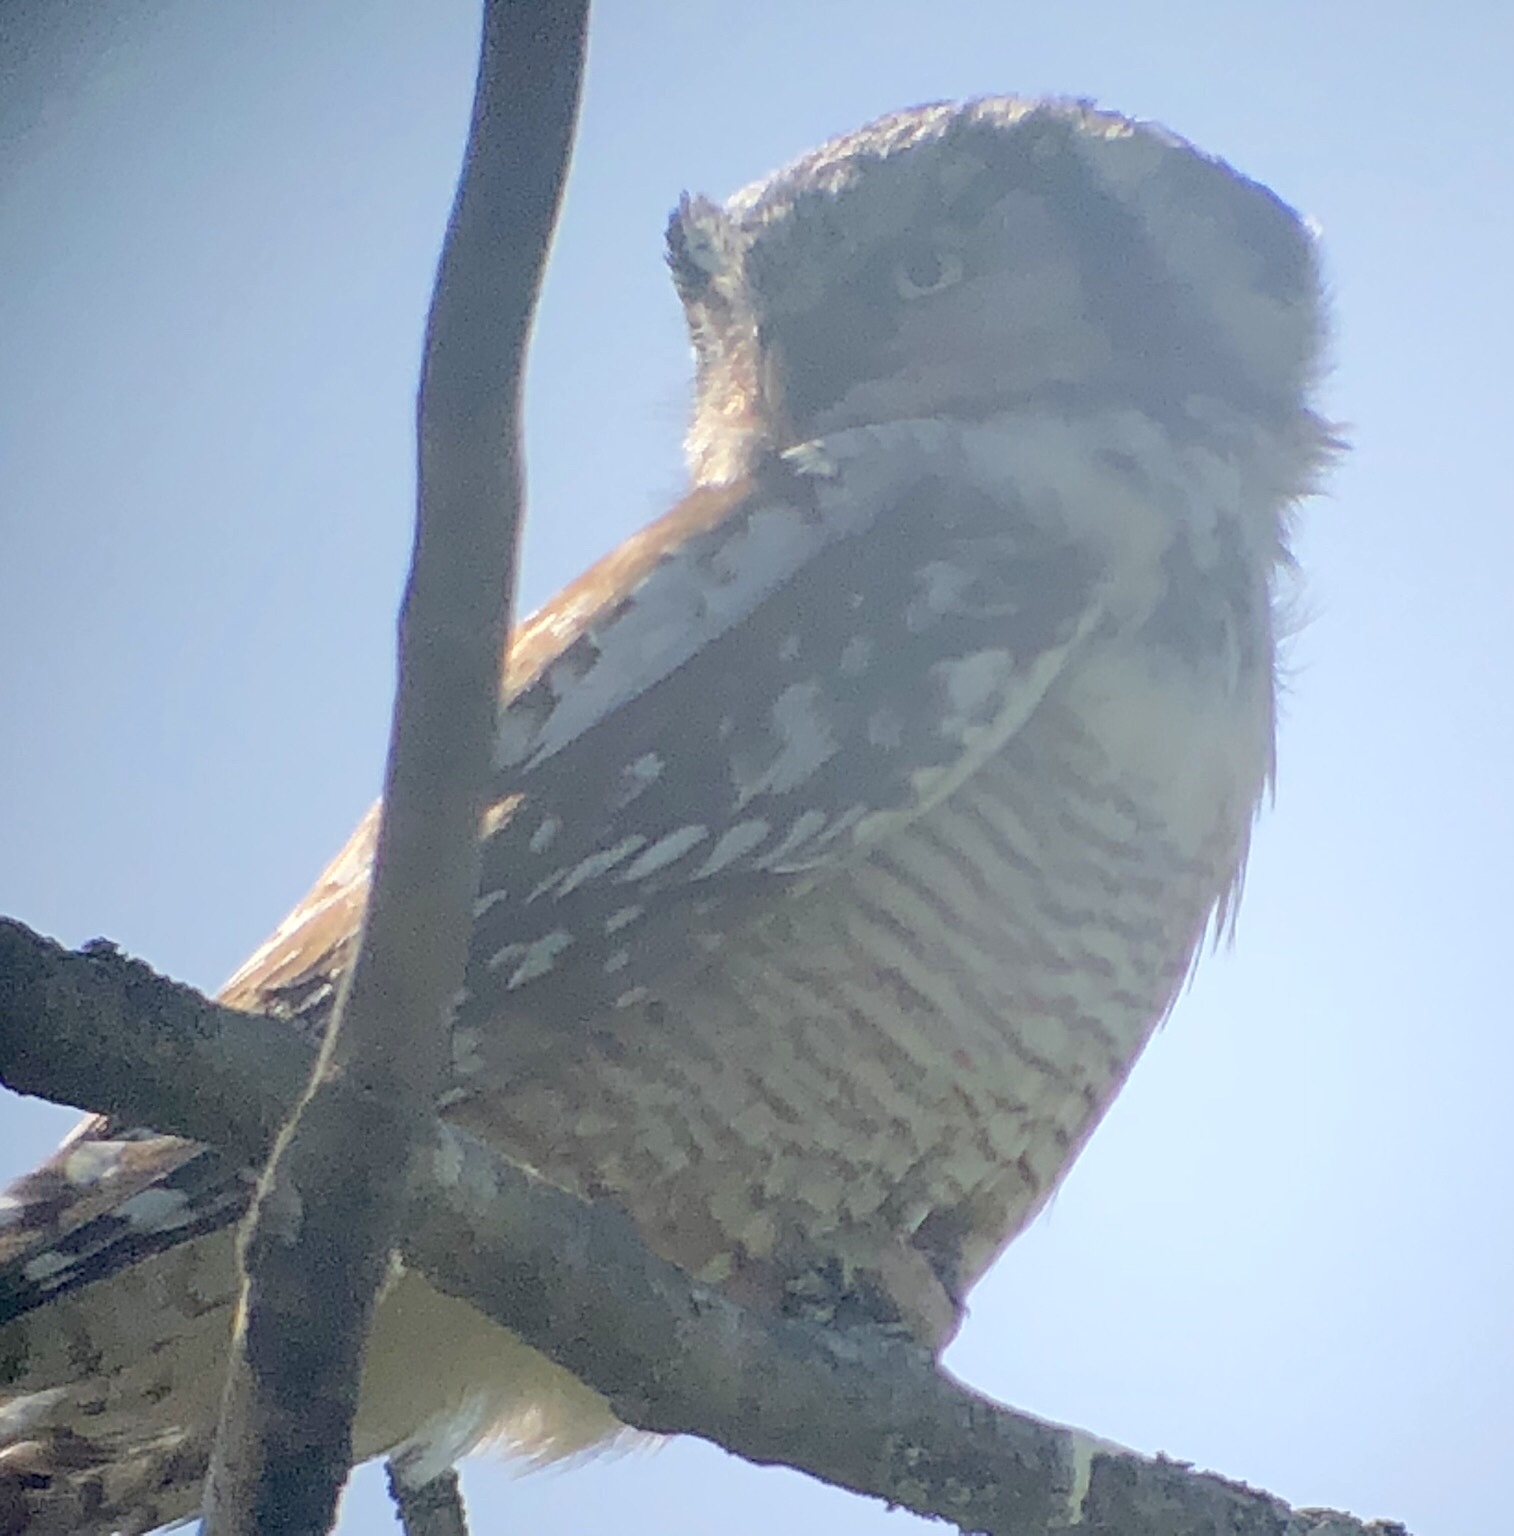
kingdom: Animalia
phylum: Chordata
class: Aves
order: Strigiformes
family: Strigidae
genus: Surnia
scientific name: Surnia ulula
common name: Northern hawk-owl
